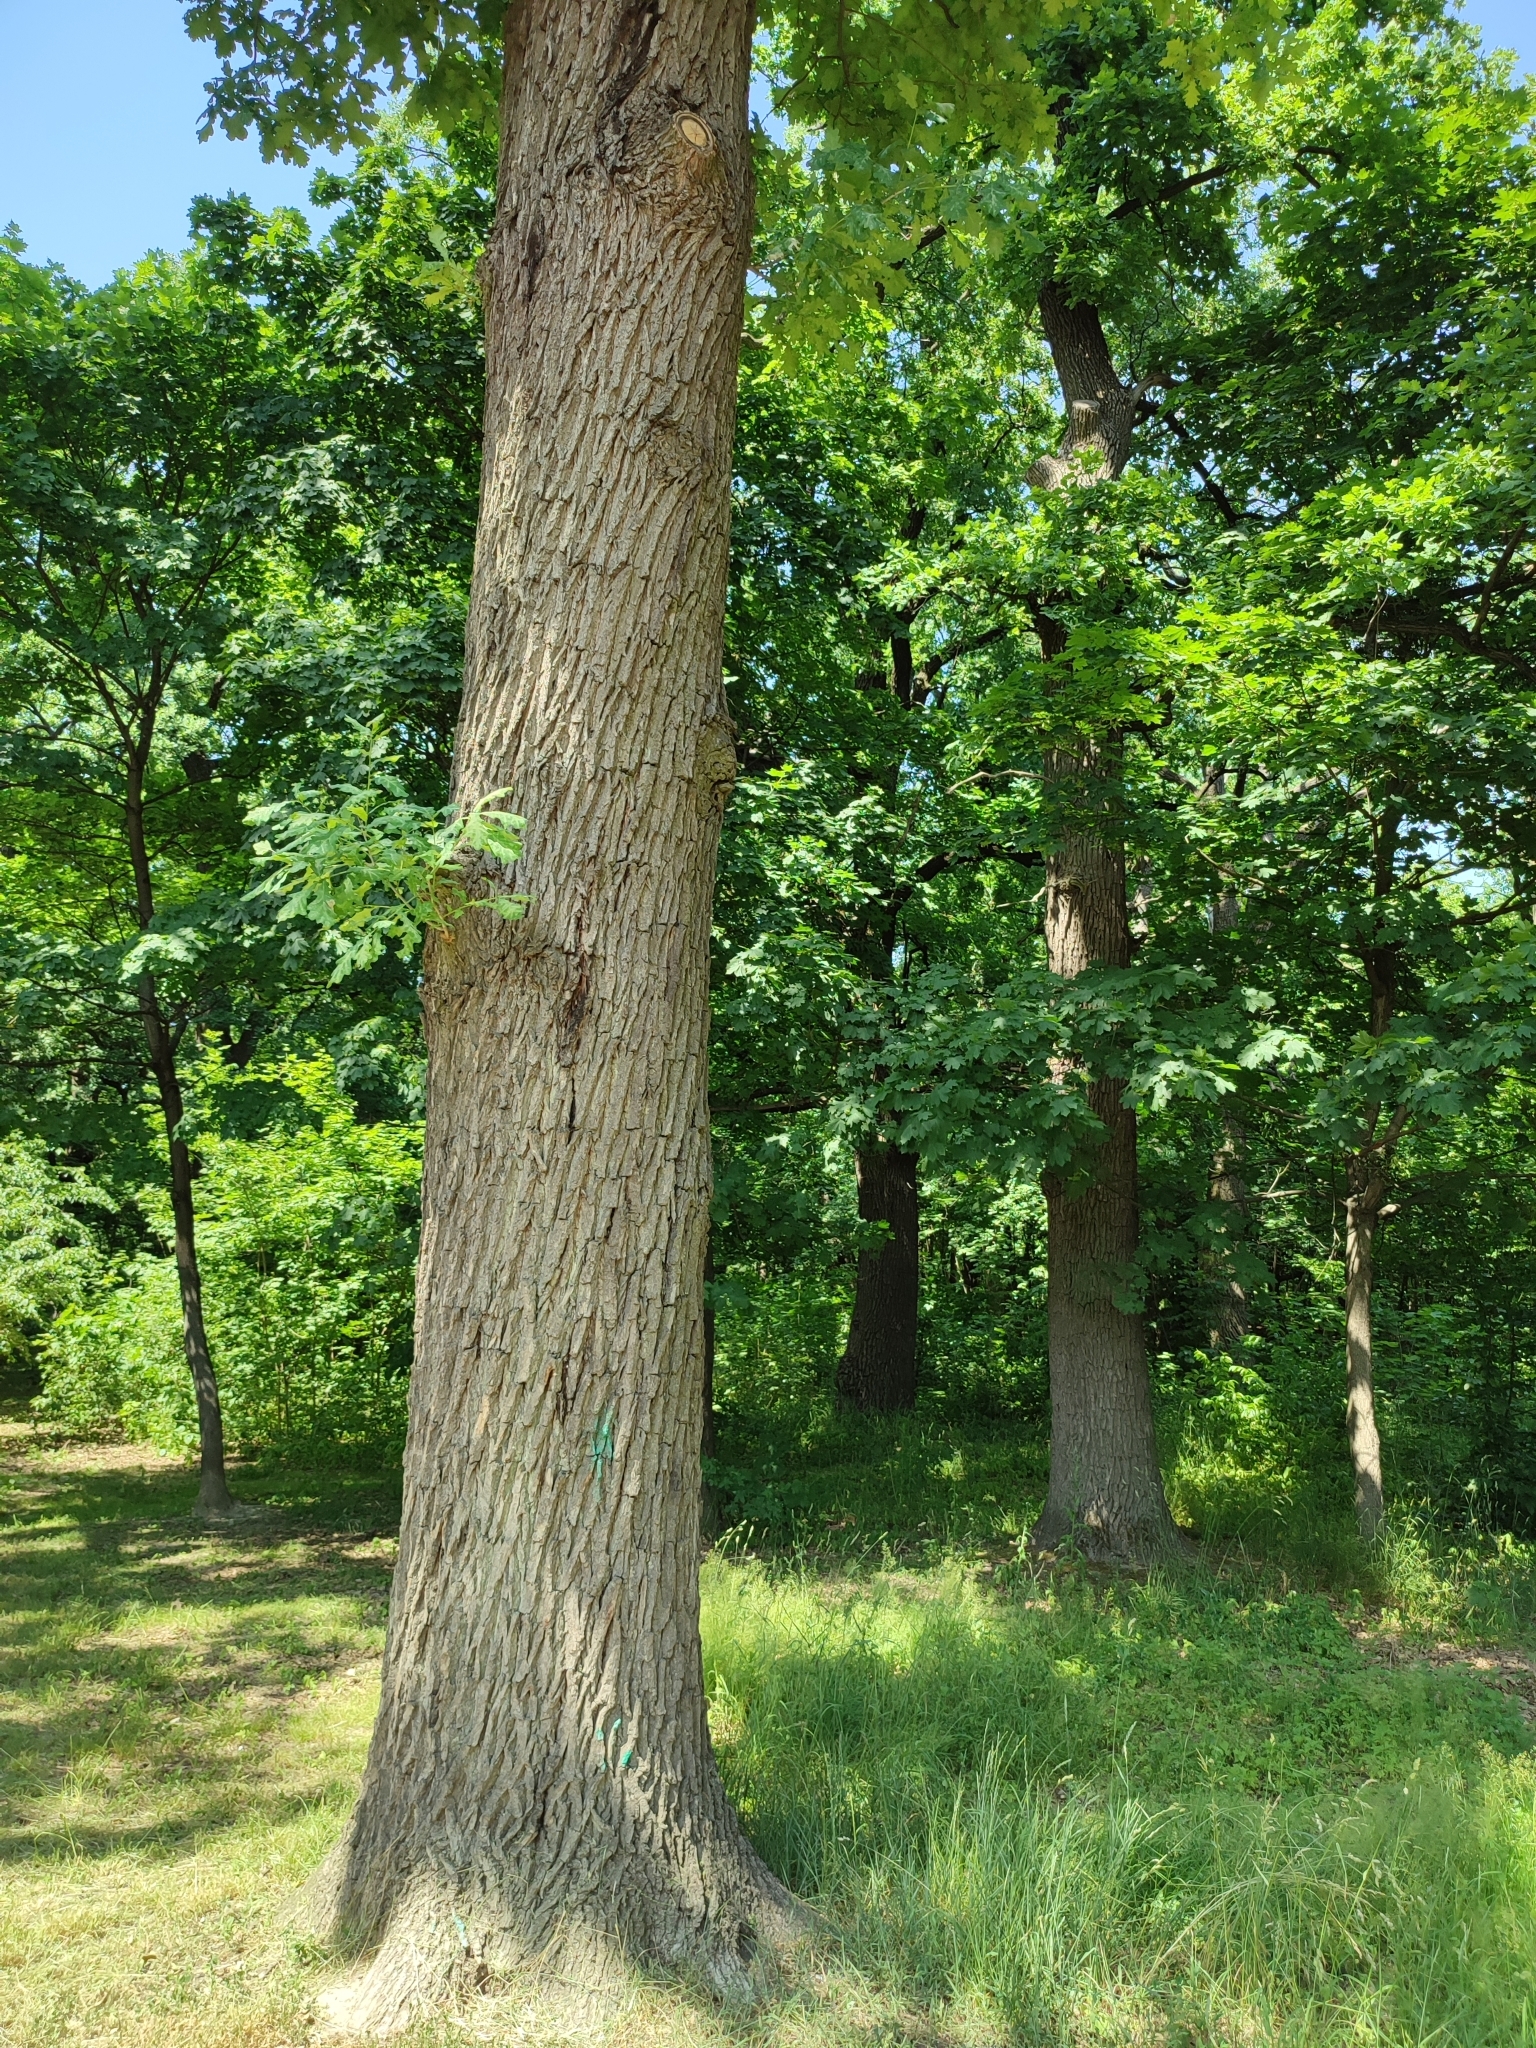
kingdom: Plantae
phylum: Tracheophyta
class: Magnoliopsida
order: Fagales
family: Fagaceae
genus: Quercus
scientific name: Quercus robur
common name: Pedunculate oak
